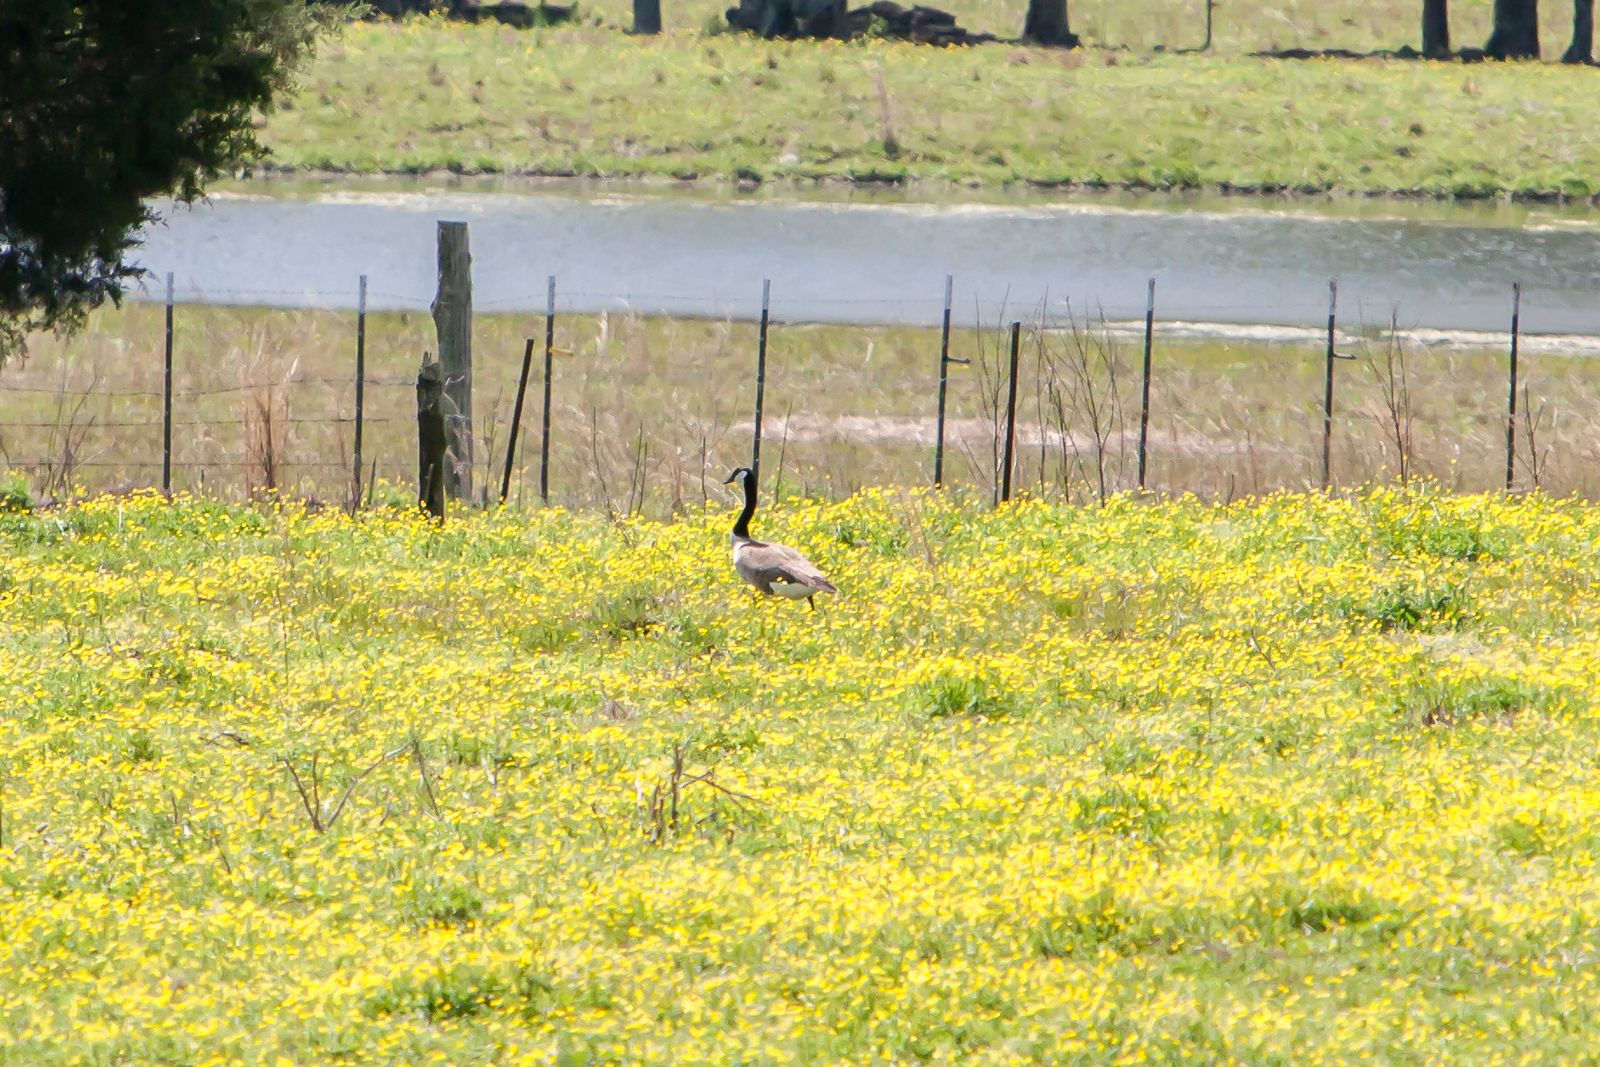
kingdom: Animalia
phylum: Chordata
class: Aves
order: Anseriformes
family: Anatidae
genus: Branta
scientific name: Branta canadensis
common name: Canada goose
